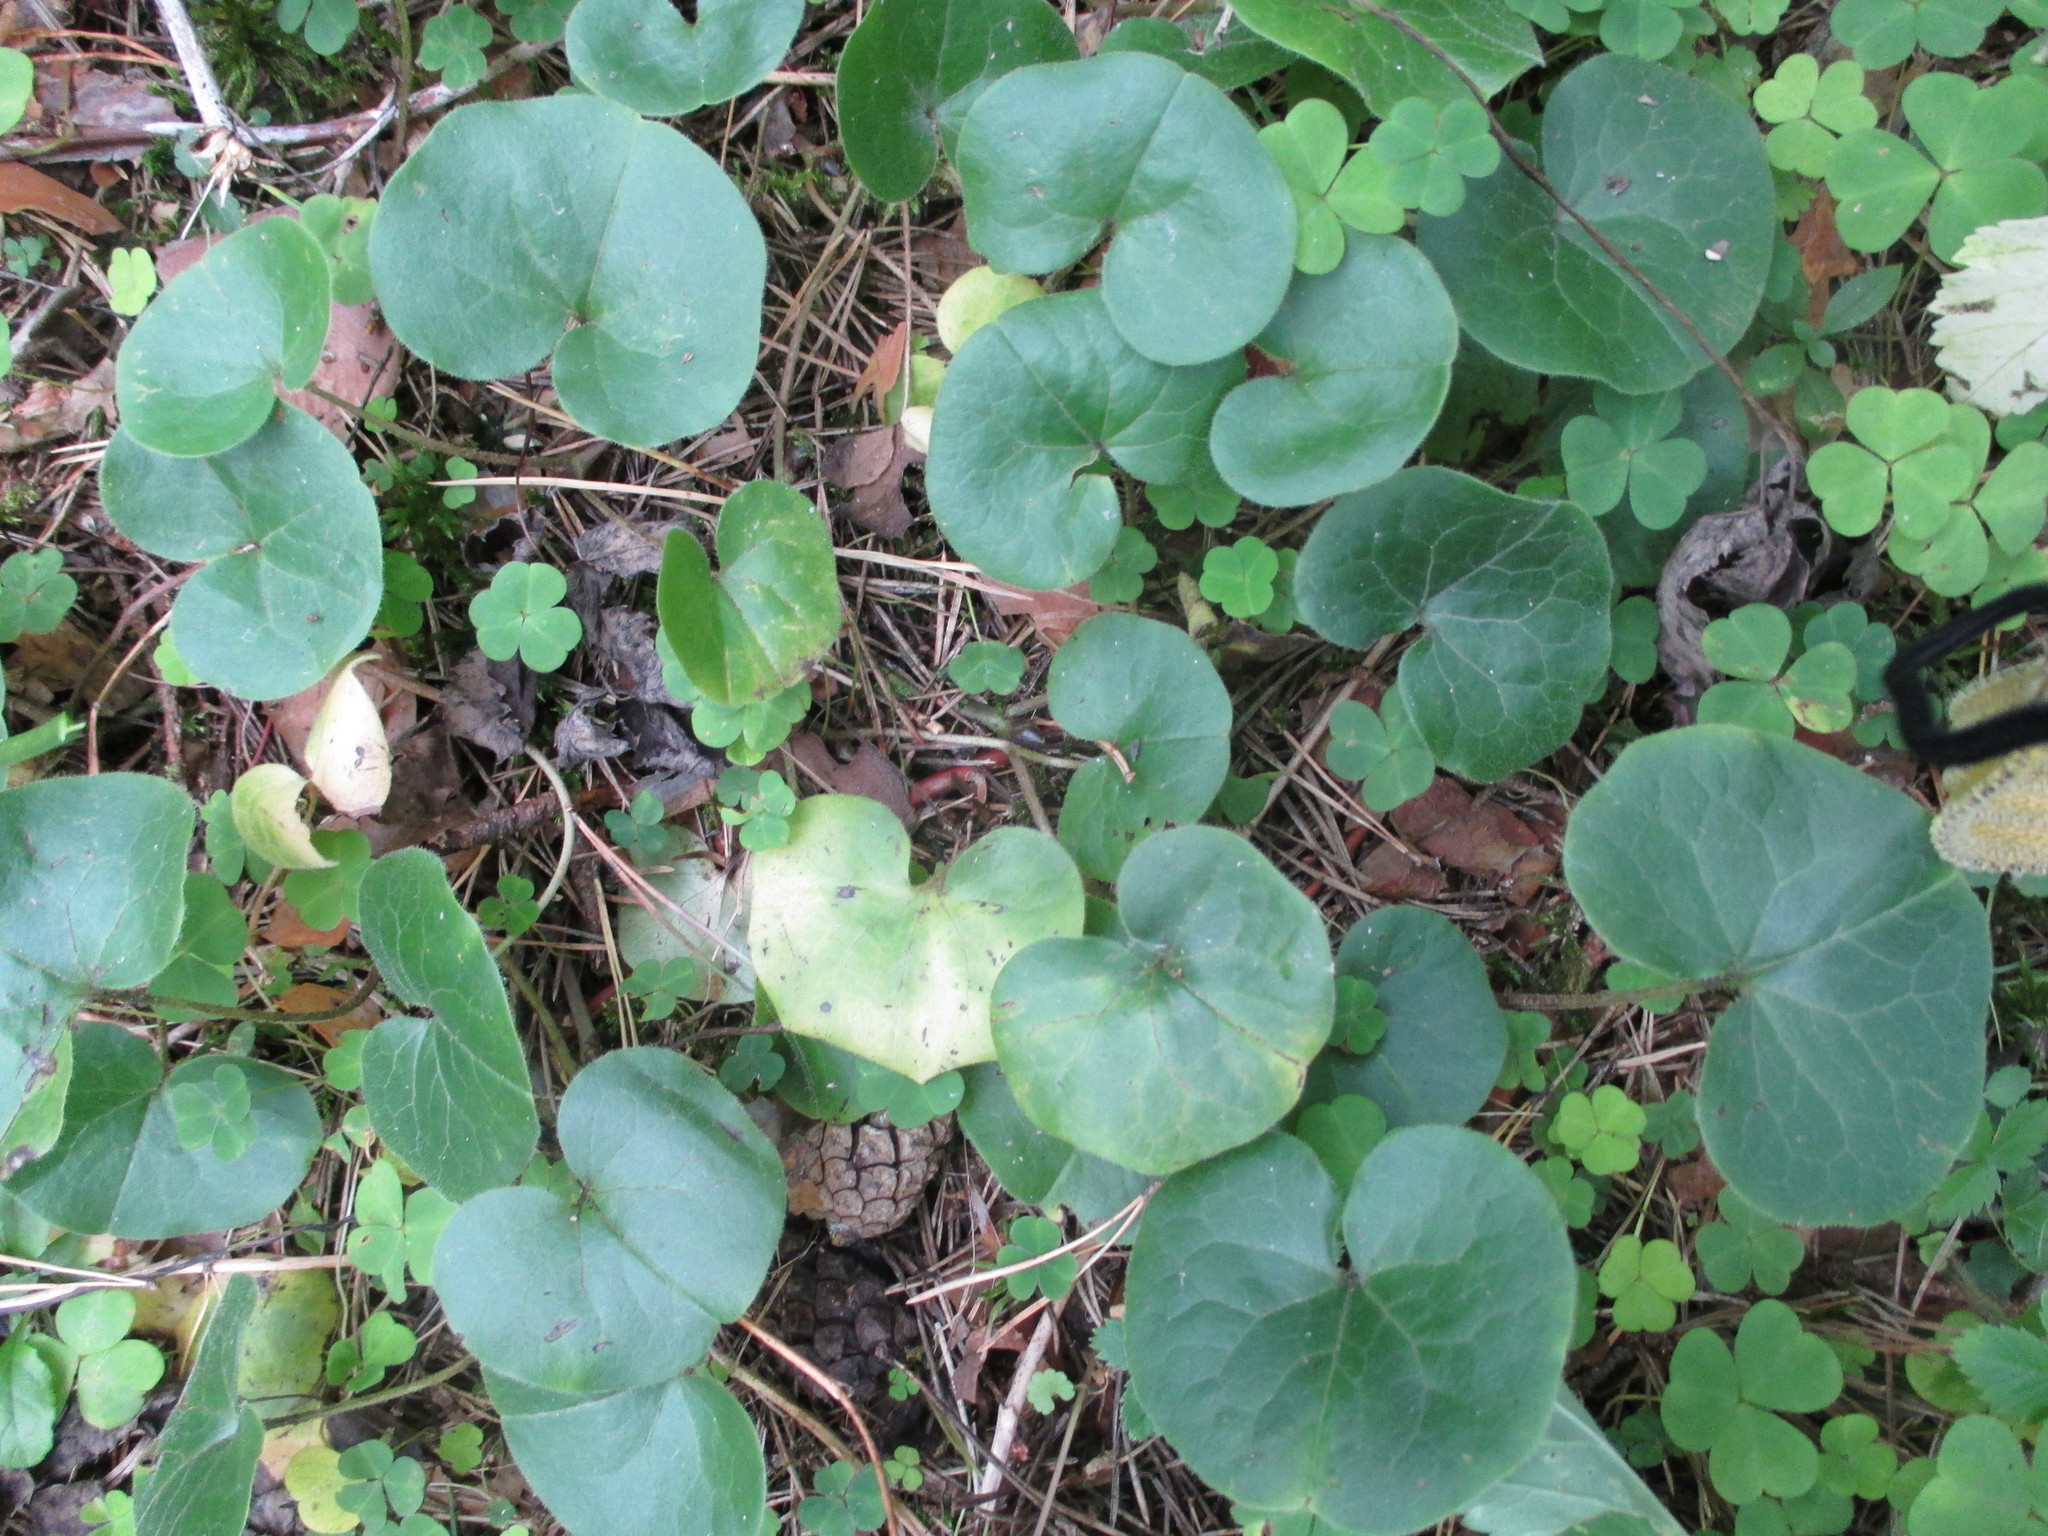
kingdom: Plantae
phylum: Tracheophyta
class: Magnoliopsida
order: Piperales
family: Aristolochiaceae
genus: Asarum
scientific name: Asarum europaeum
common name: Asarabacca
